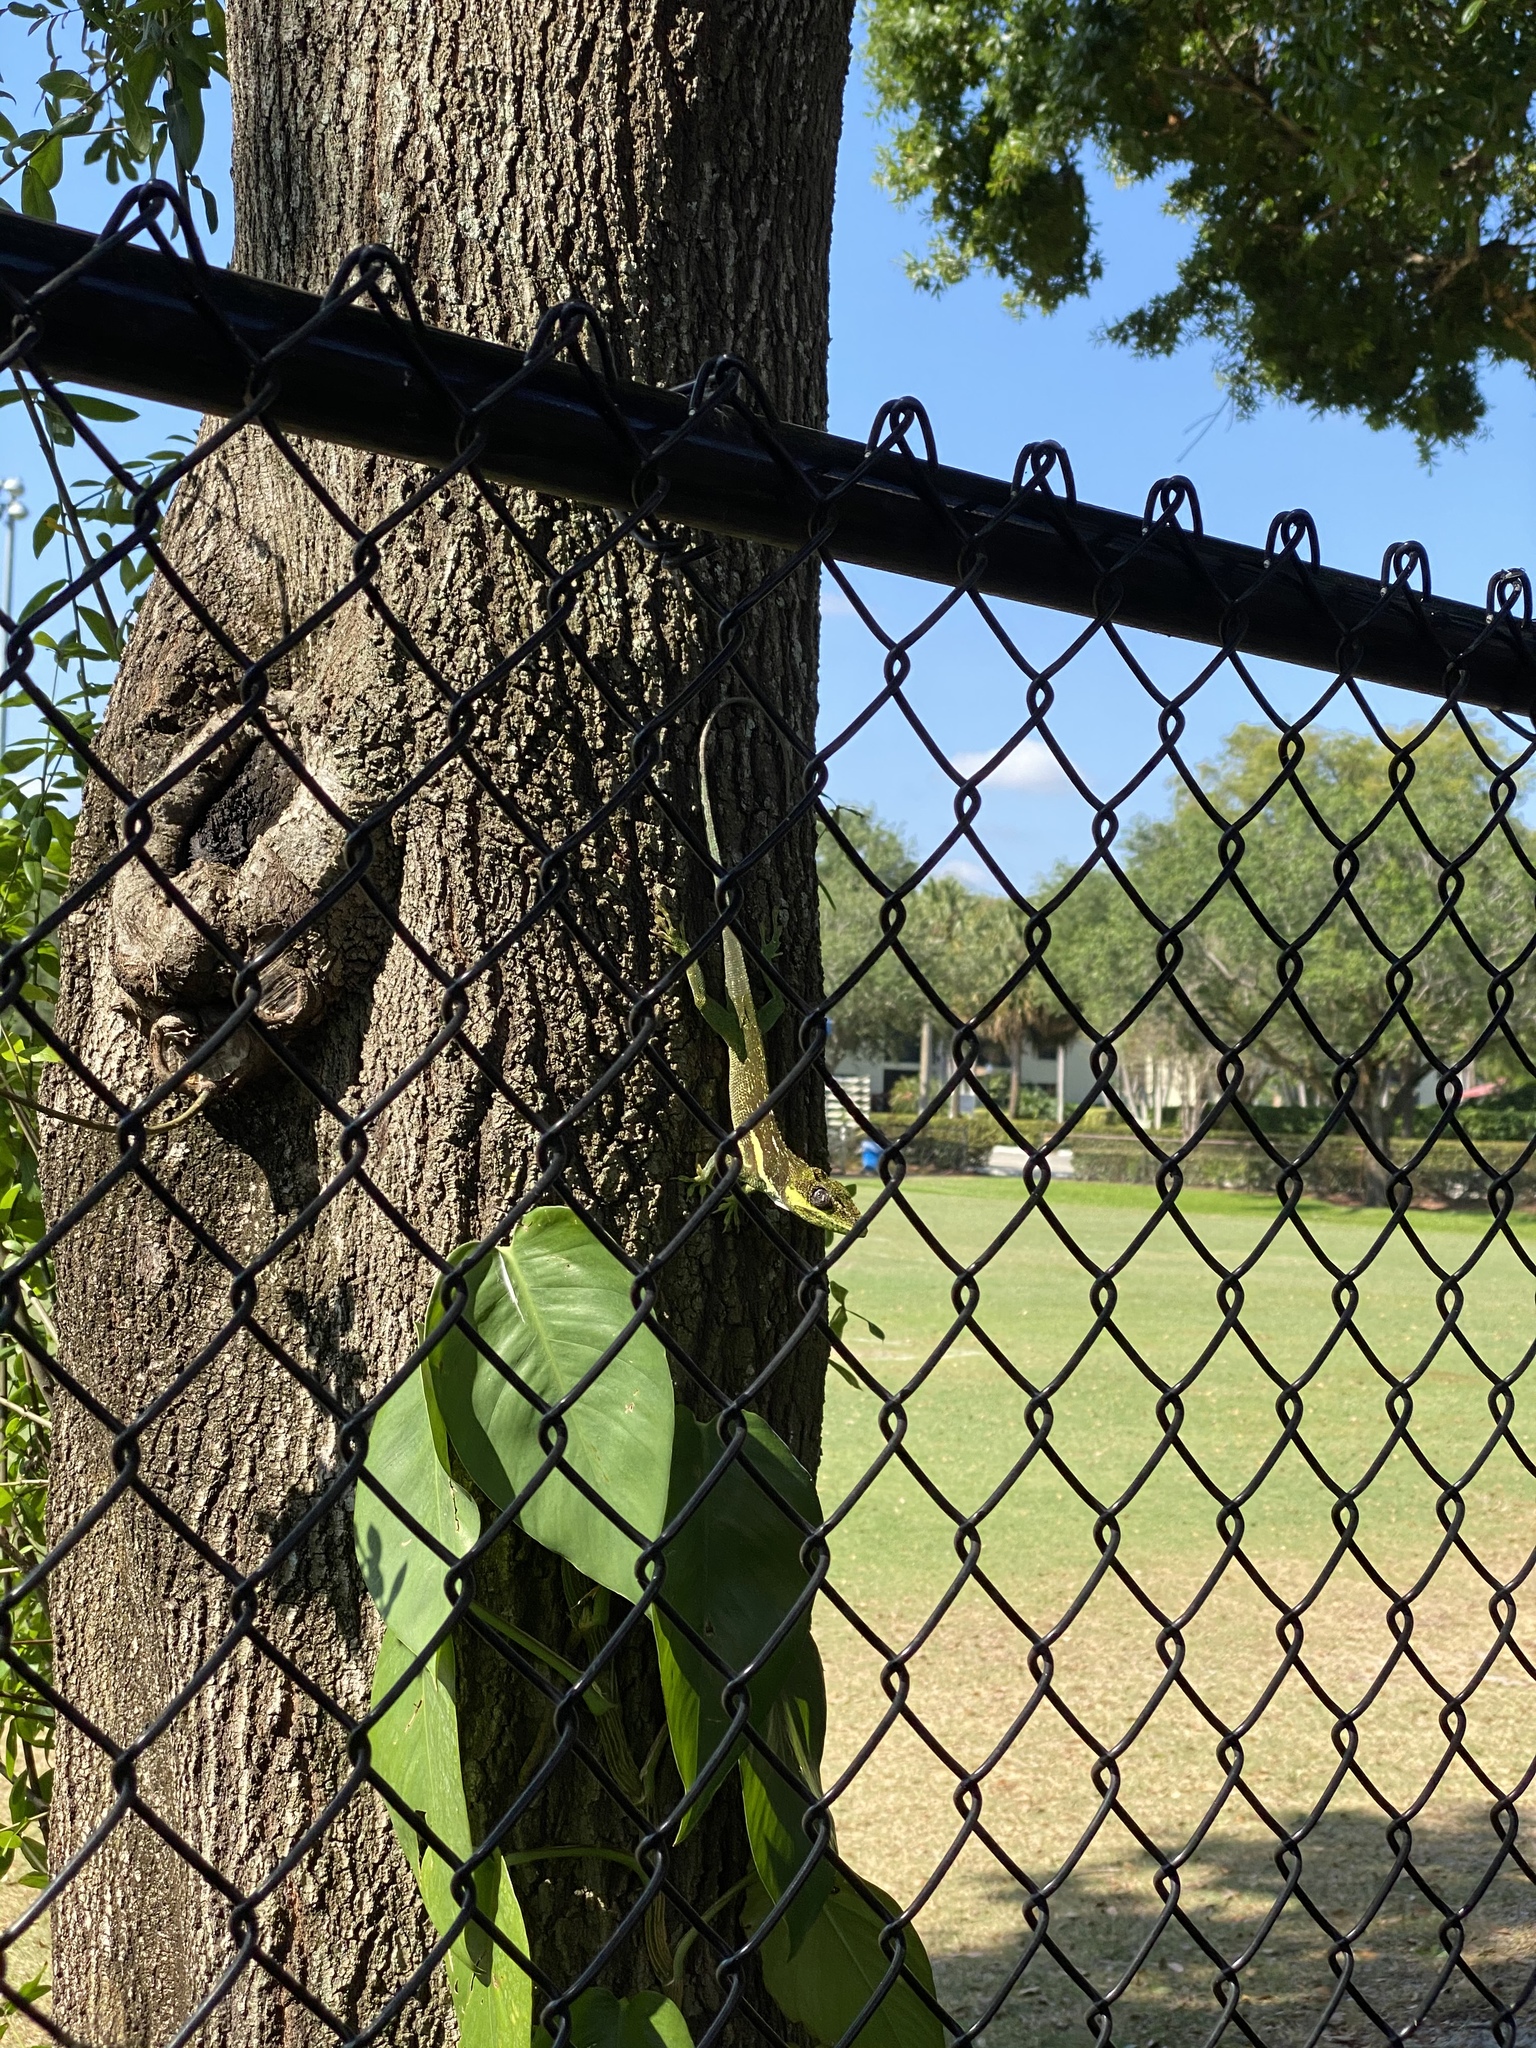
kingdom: Animalia
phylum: Chordata
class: Squamata
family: Dactyloidae
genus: Anolis
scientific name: Anolis equestris
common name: Knight anole
